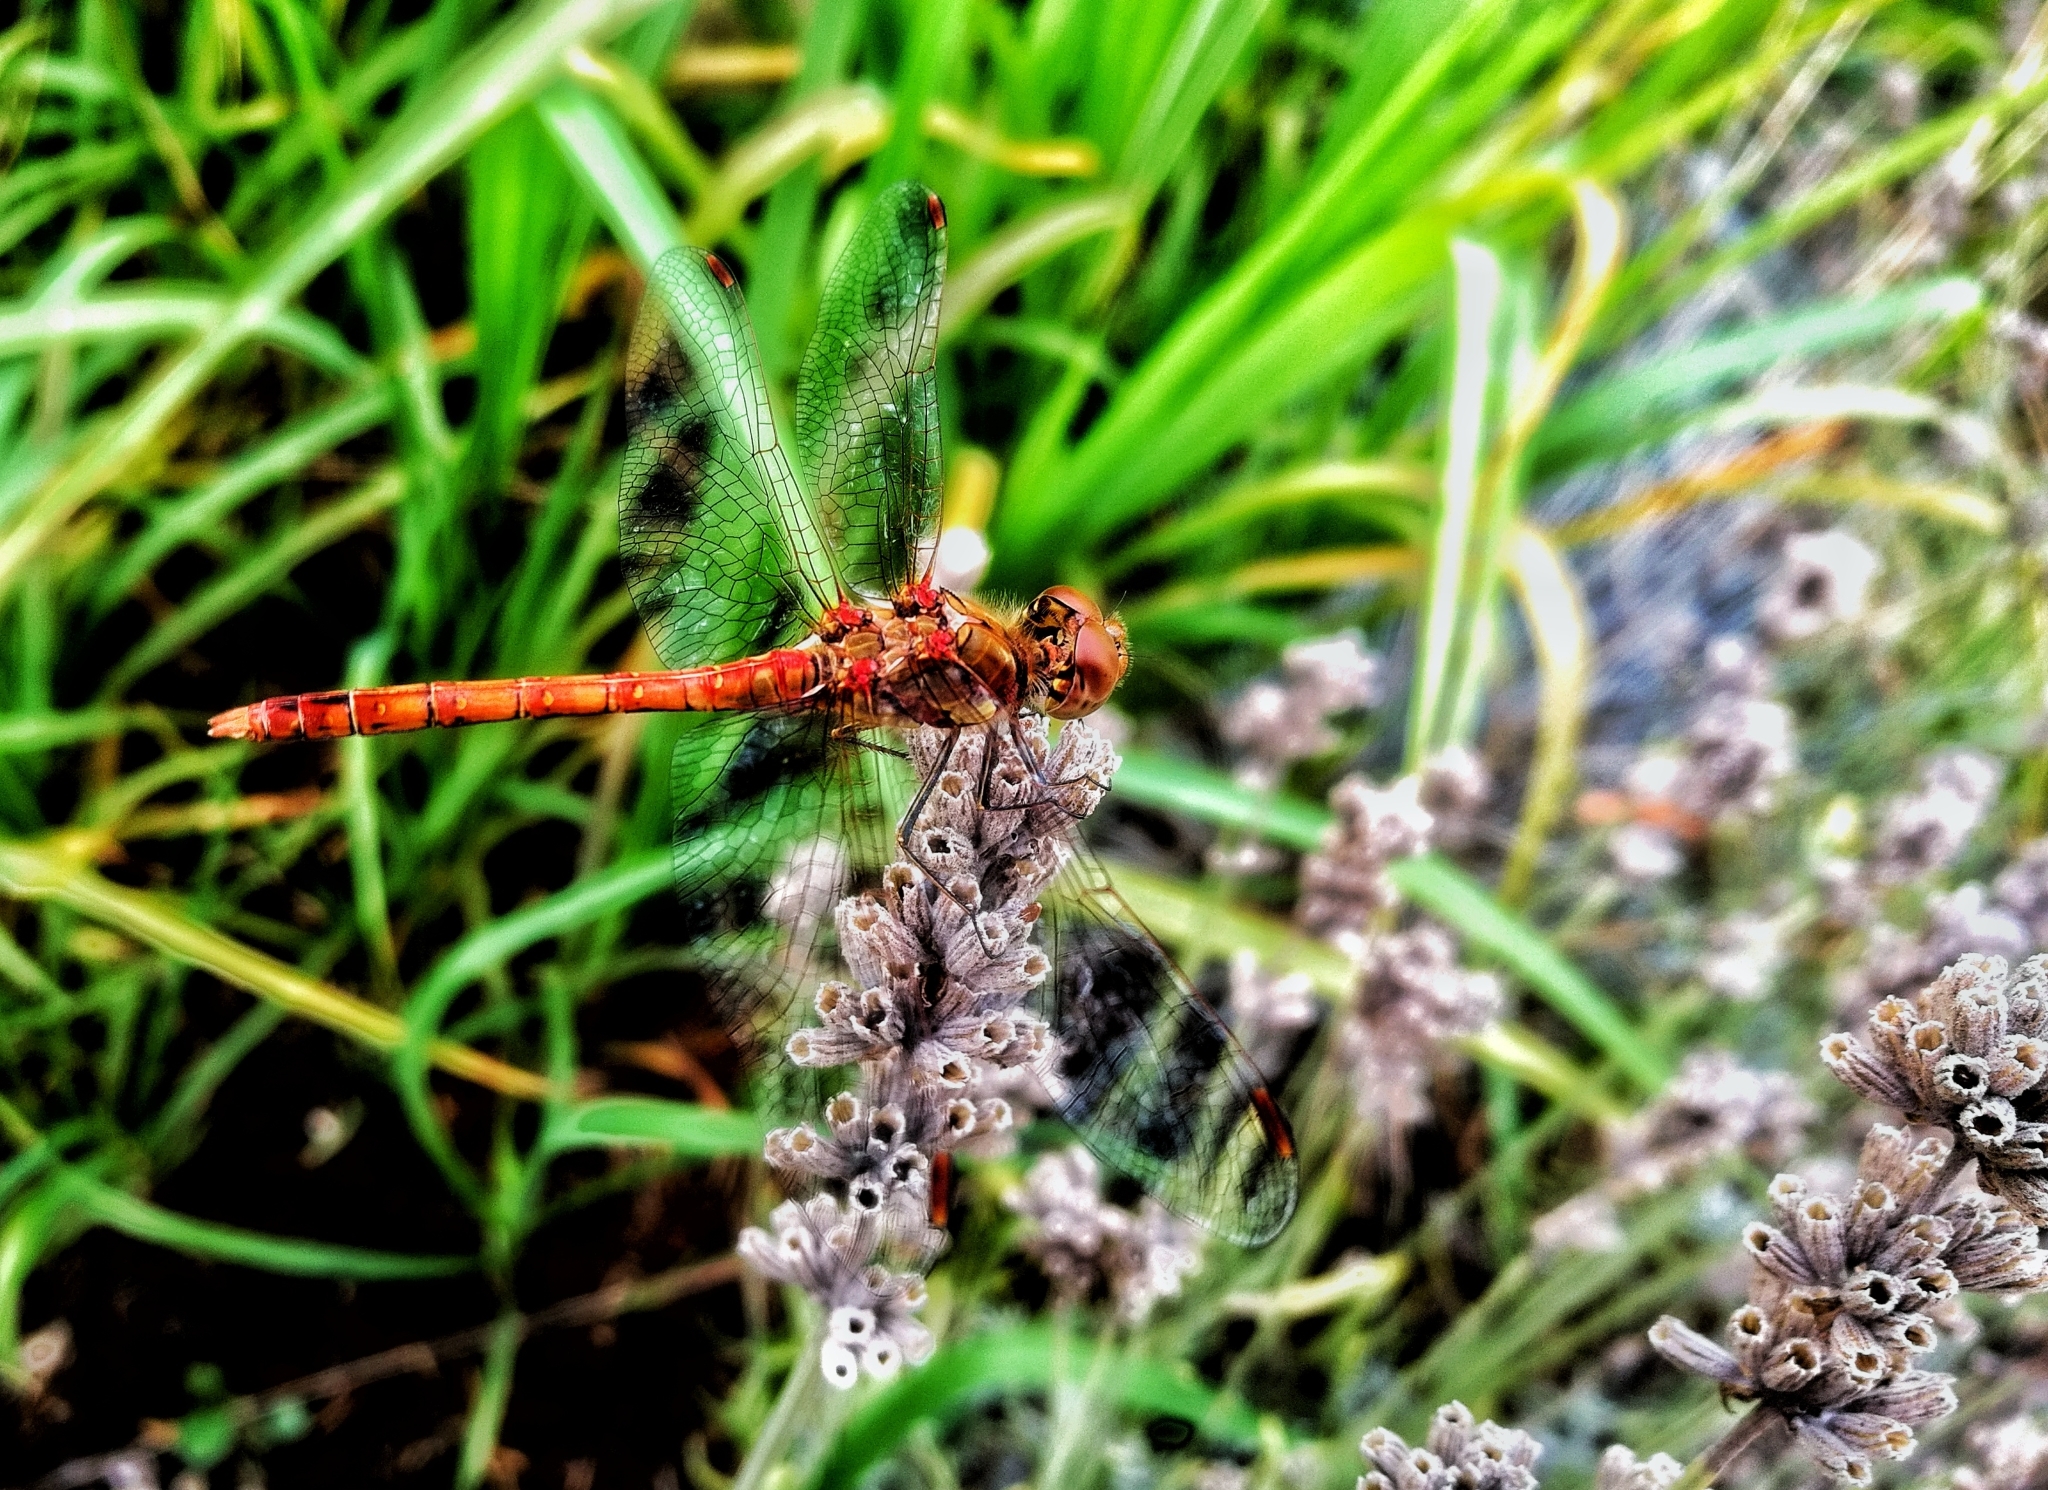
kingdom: Animalia
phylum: Arthropoda
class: Insecta
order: Odonata
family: Libellulidae
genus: Sympetrum
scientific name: Sympetrum striolatum
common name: Common darter
